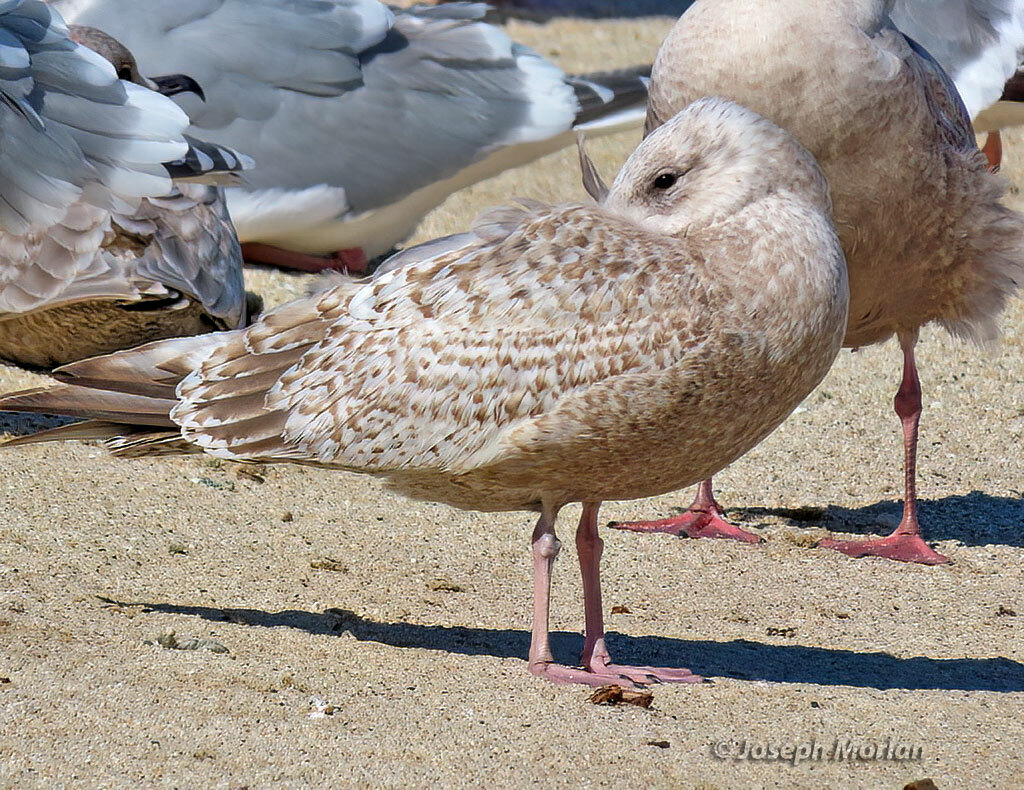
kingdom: Animalia
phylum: Chordata
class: Aves
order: Charadriiformes
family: Laridae
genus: Larus
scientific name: Larus glaucoides
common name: Iceland gull
